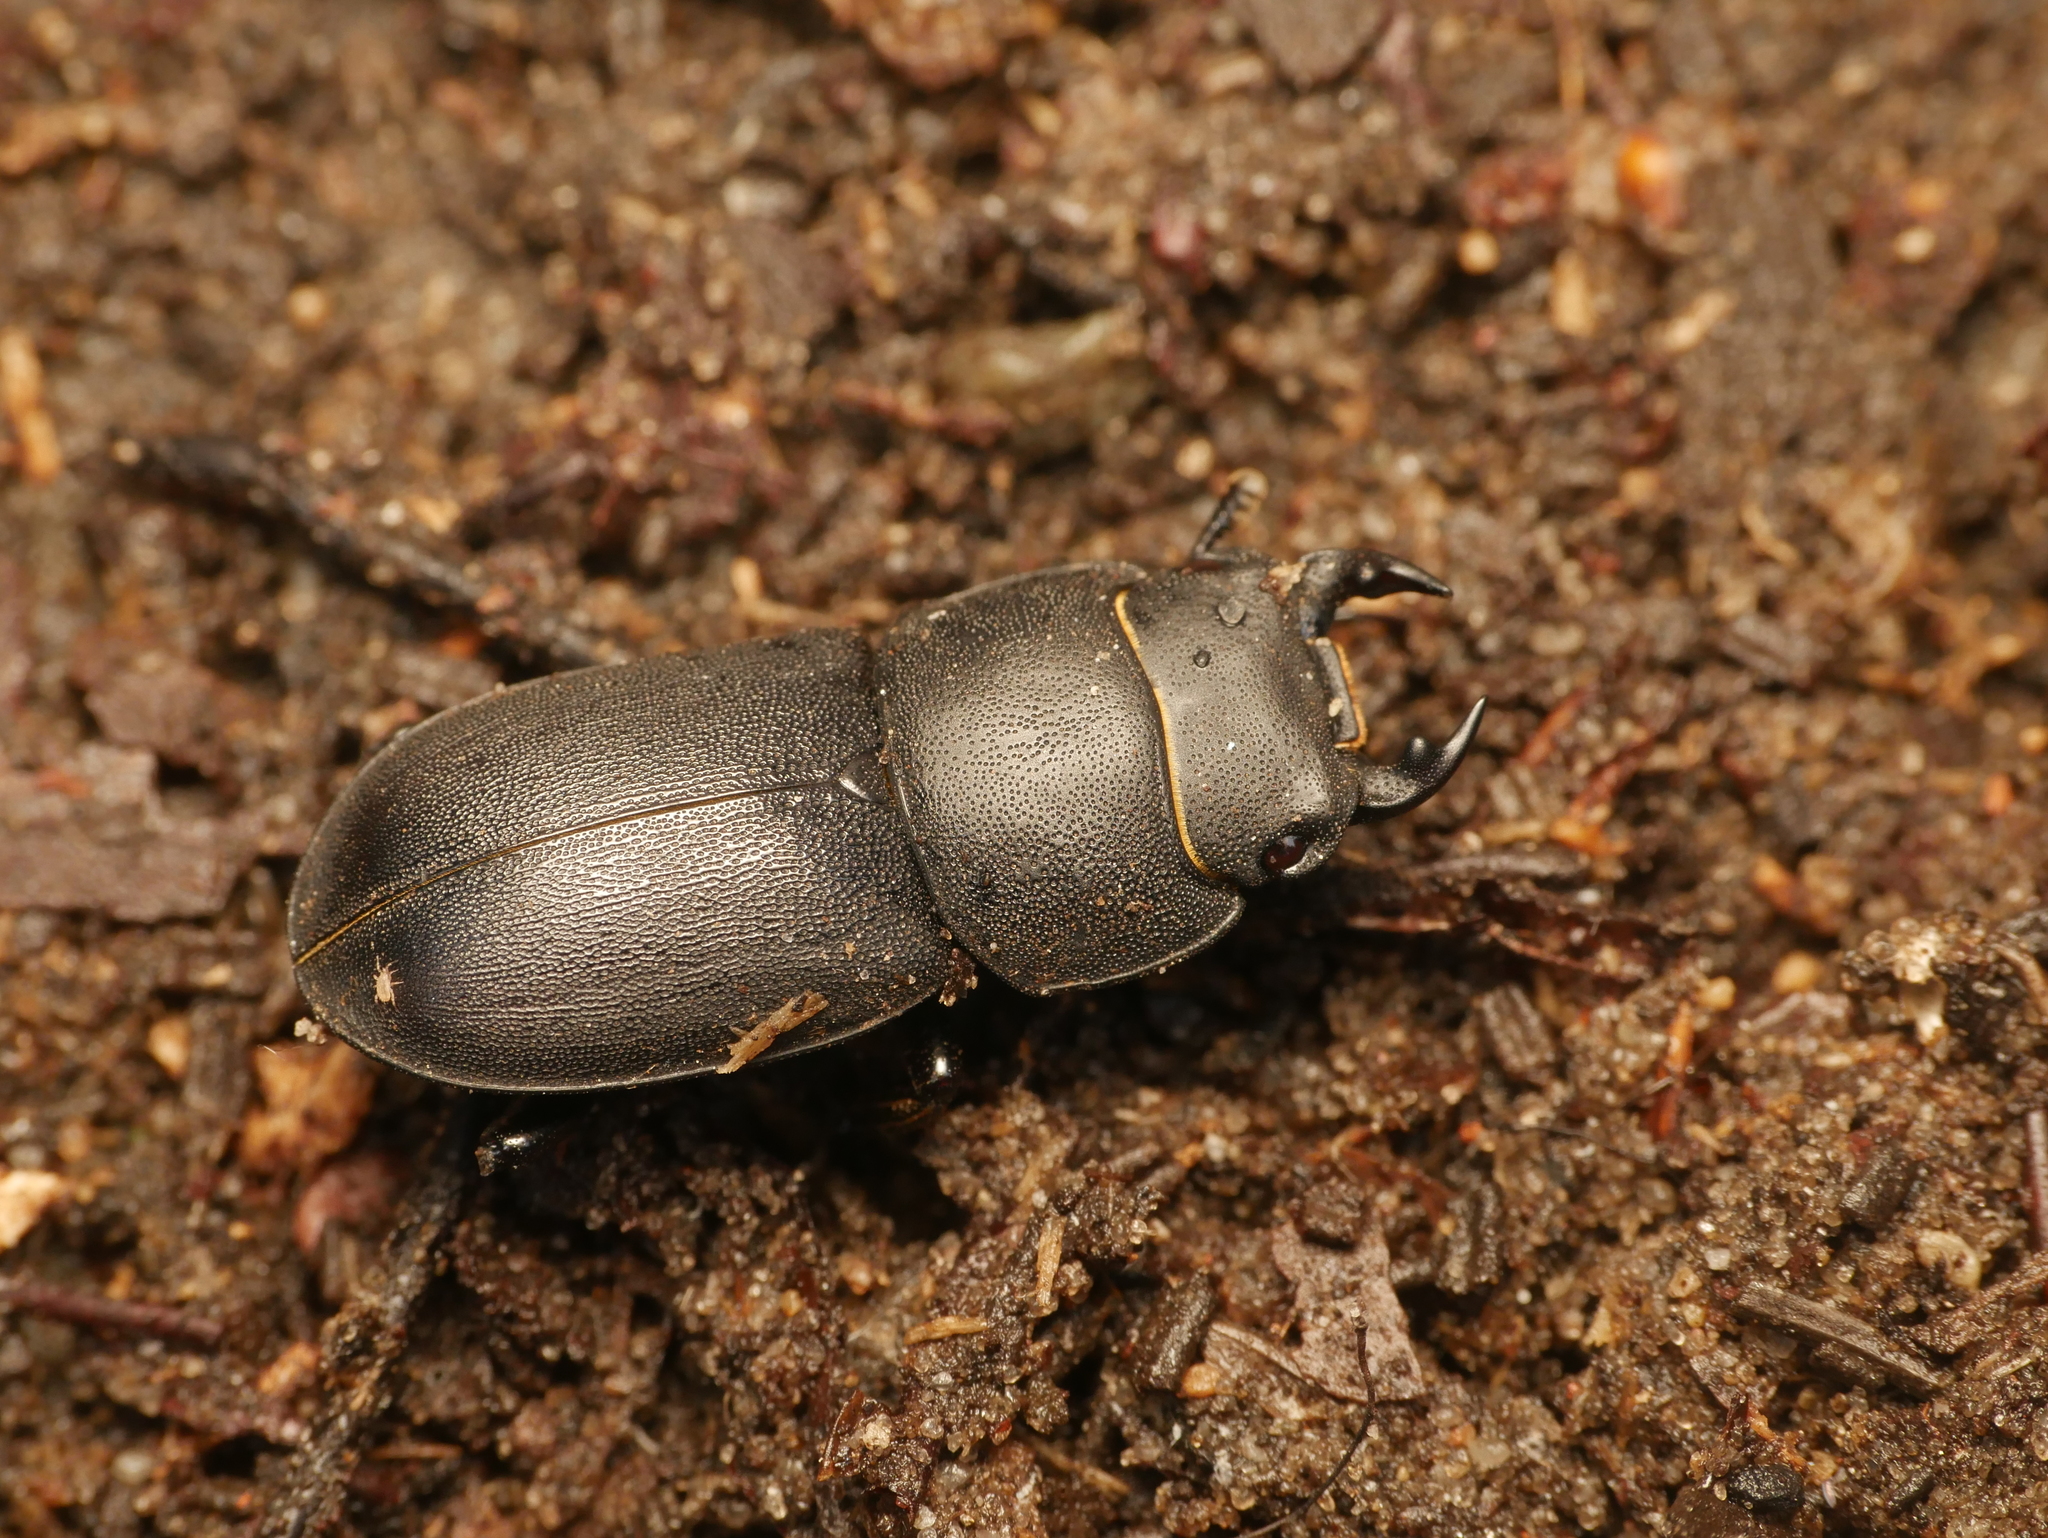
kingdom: Animalia
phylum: Arthropoda
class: Insecta
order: Coleoptera
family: Lucanidae
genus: Dorcus
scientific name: Dorcus parallelipipedus
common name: Lesser stag beetle
